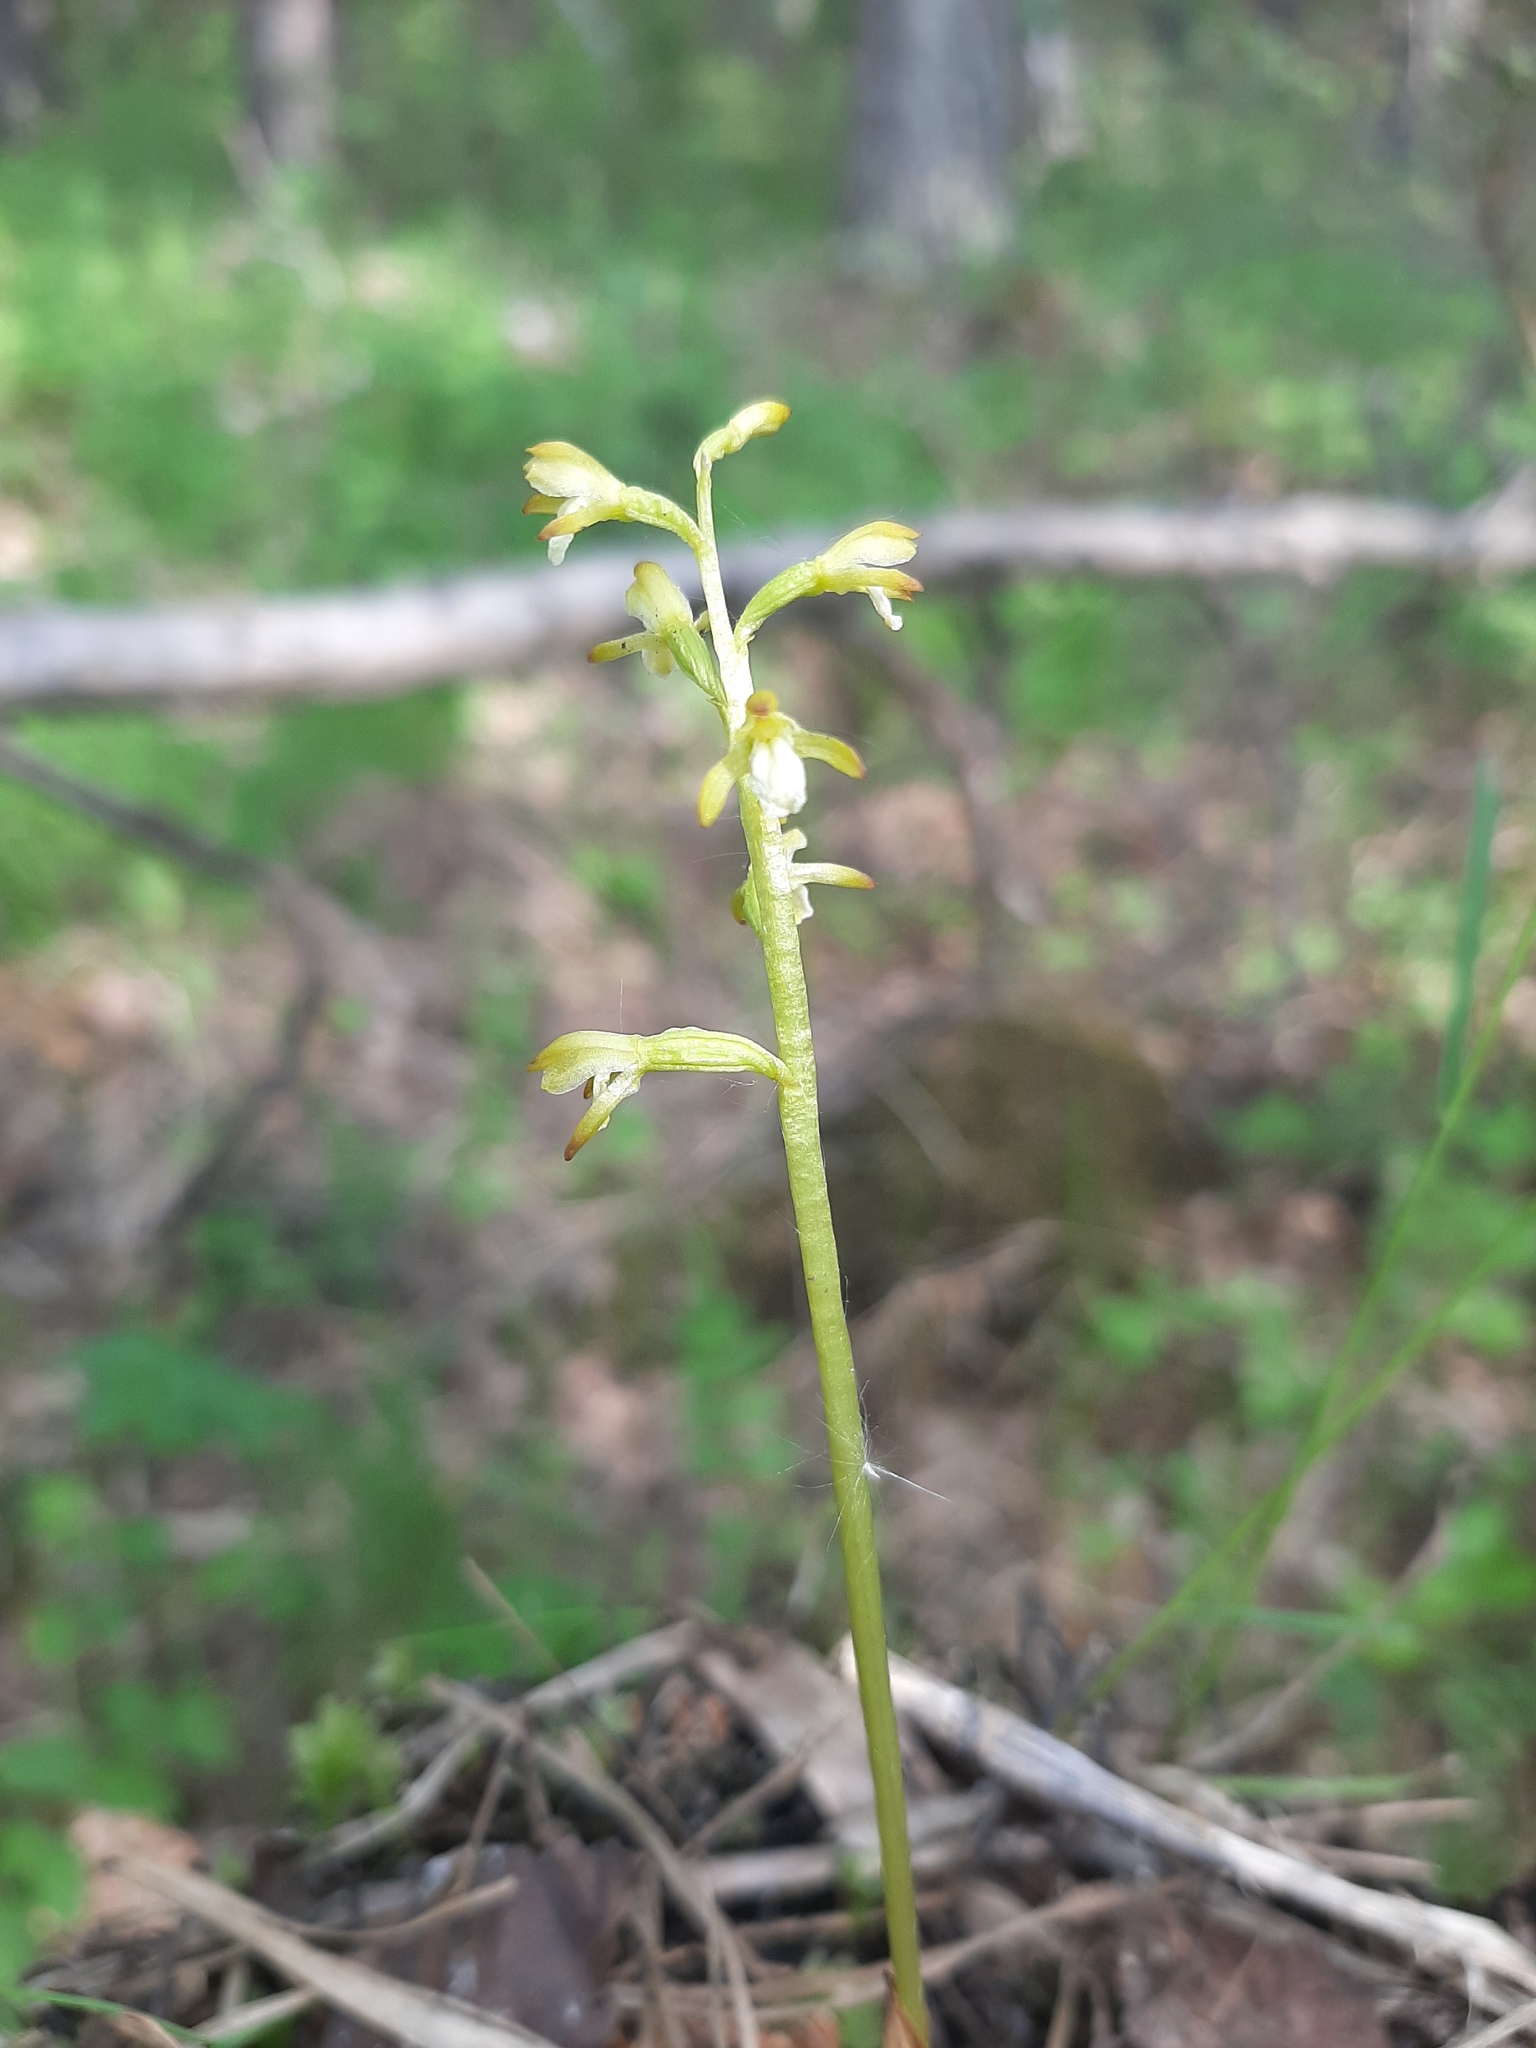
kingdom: Plantae
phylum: Tracheophyta
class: Liliopsida
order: Asparagales
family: Orchidaceae
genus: Corallorhiza
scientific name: Corallorhiza trifida
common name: Yellow coralroot
